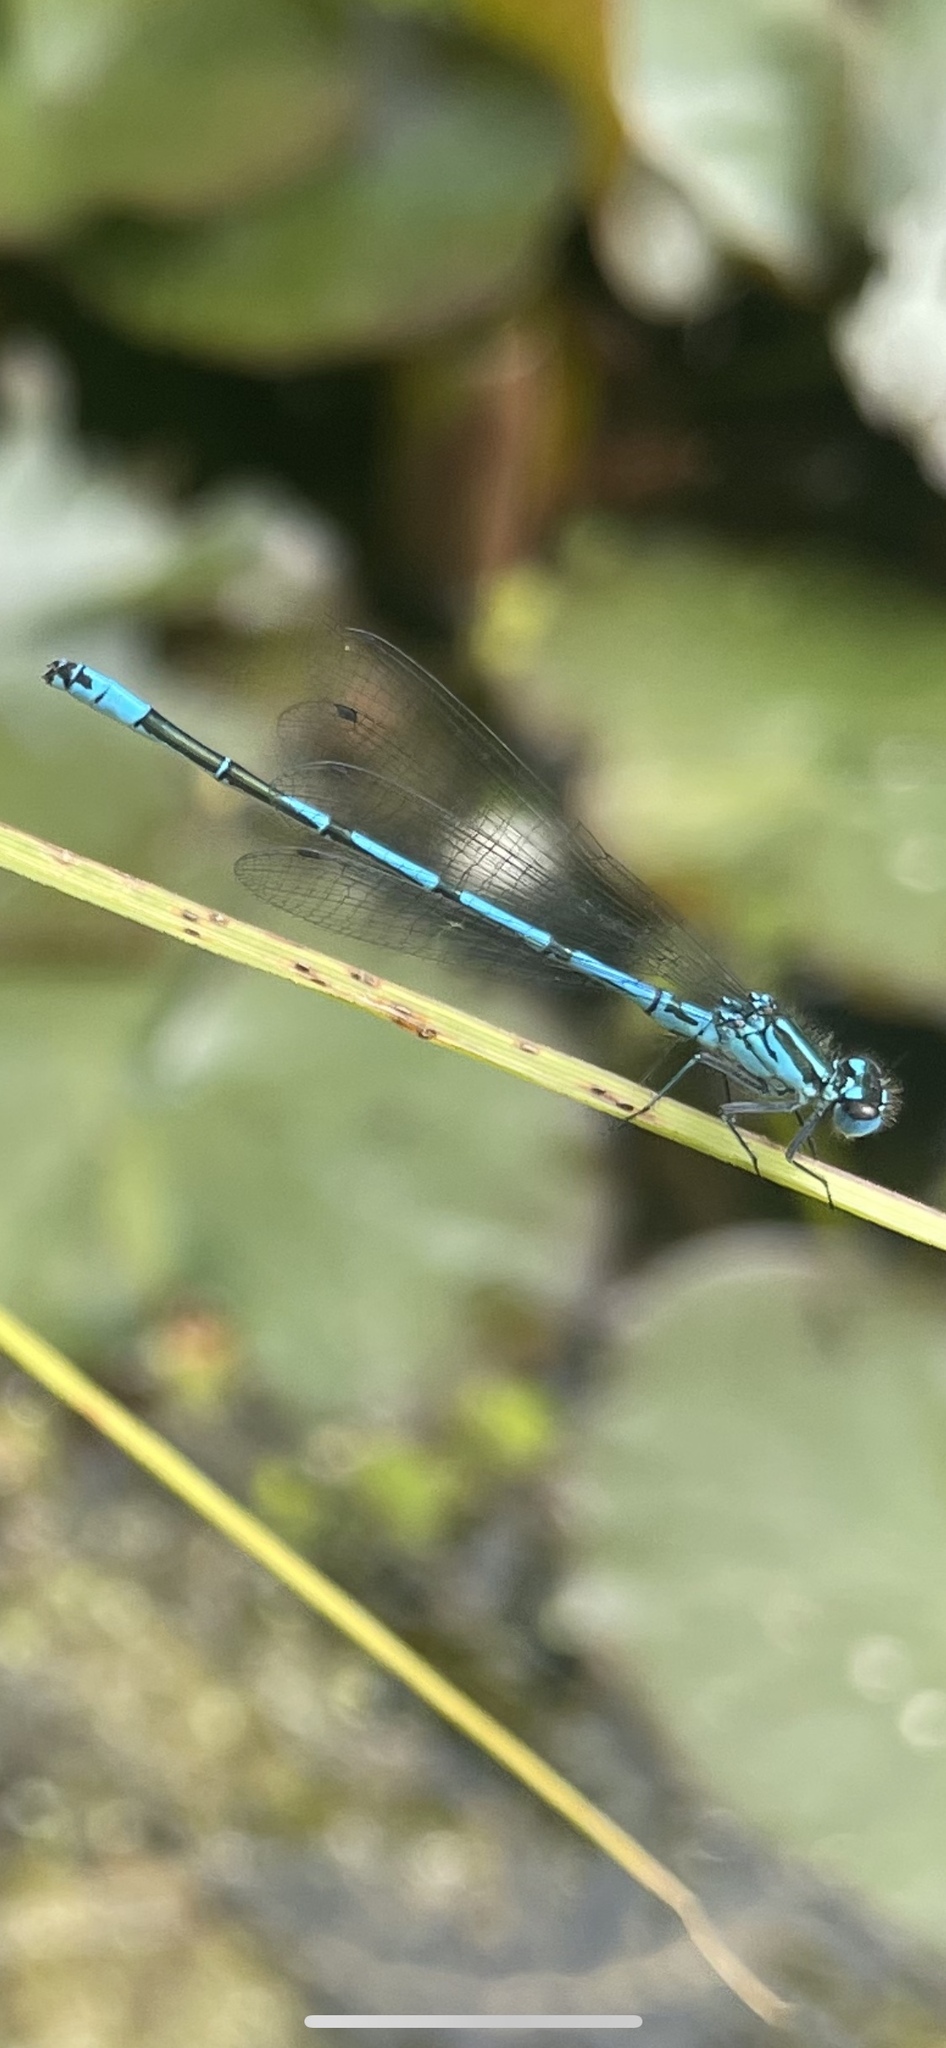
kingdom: Animalia
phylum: Arthropoda
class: Insecta
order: Odonata
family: Coenagrionidae
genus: Coenagrion
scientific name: Coenagrion puella
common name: Azure damselfly
